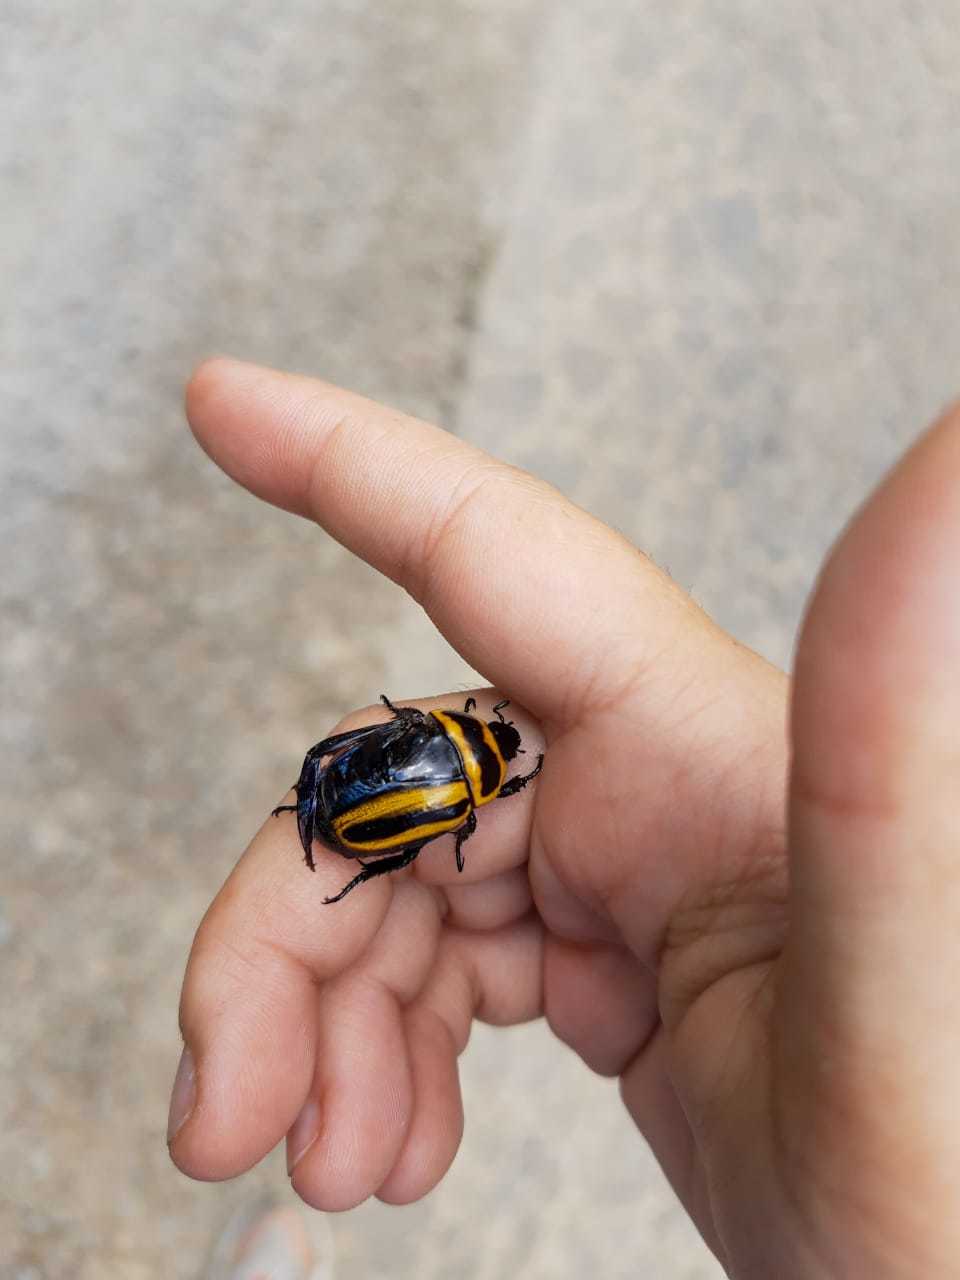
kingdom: Animalia
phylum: Arthropoda
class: Insecta
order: Coleoptera
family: Scarabaeidae
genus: Macraspis
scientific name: Macraspis cincta
